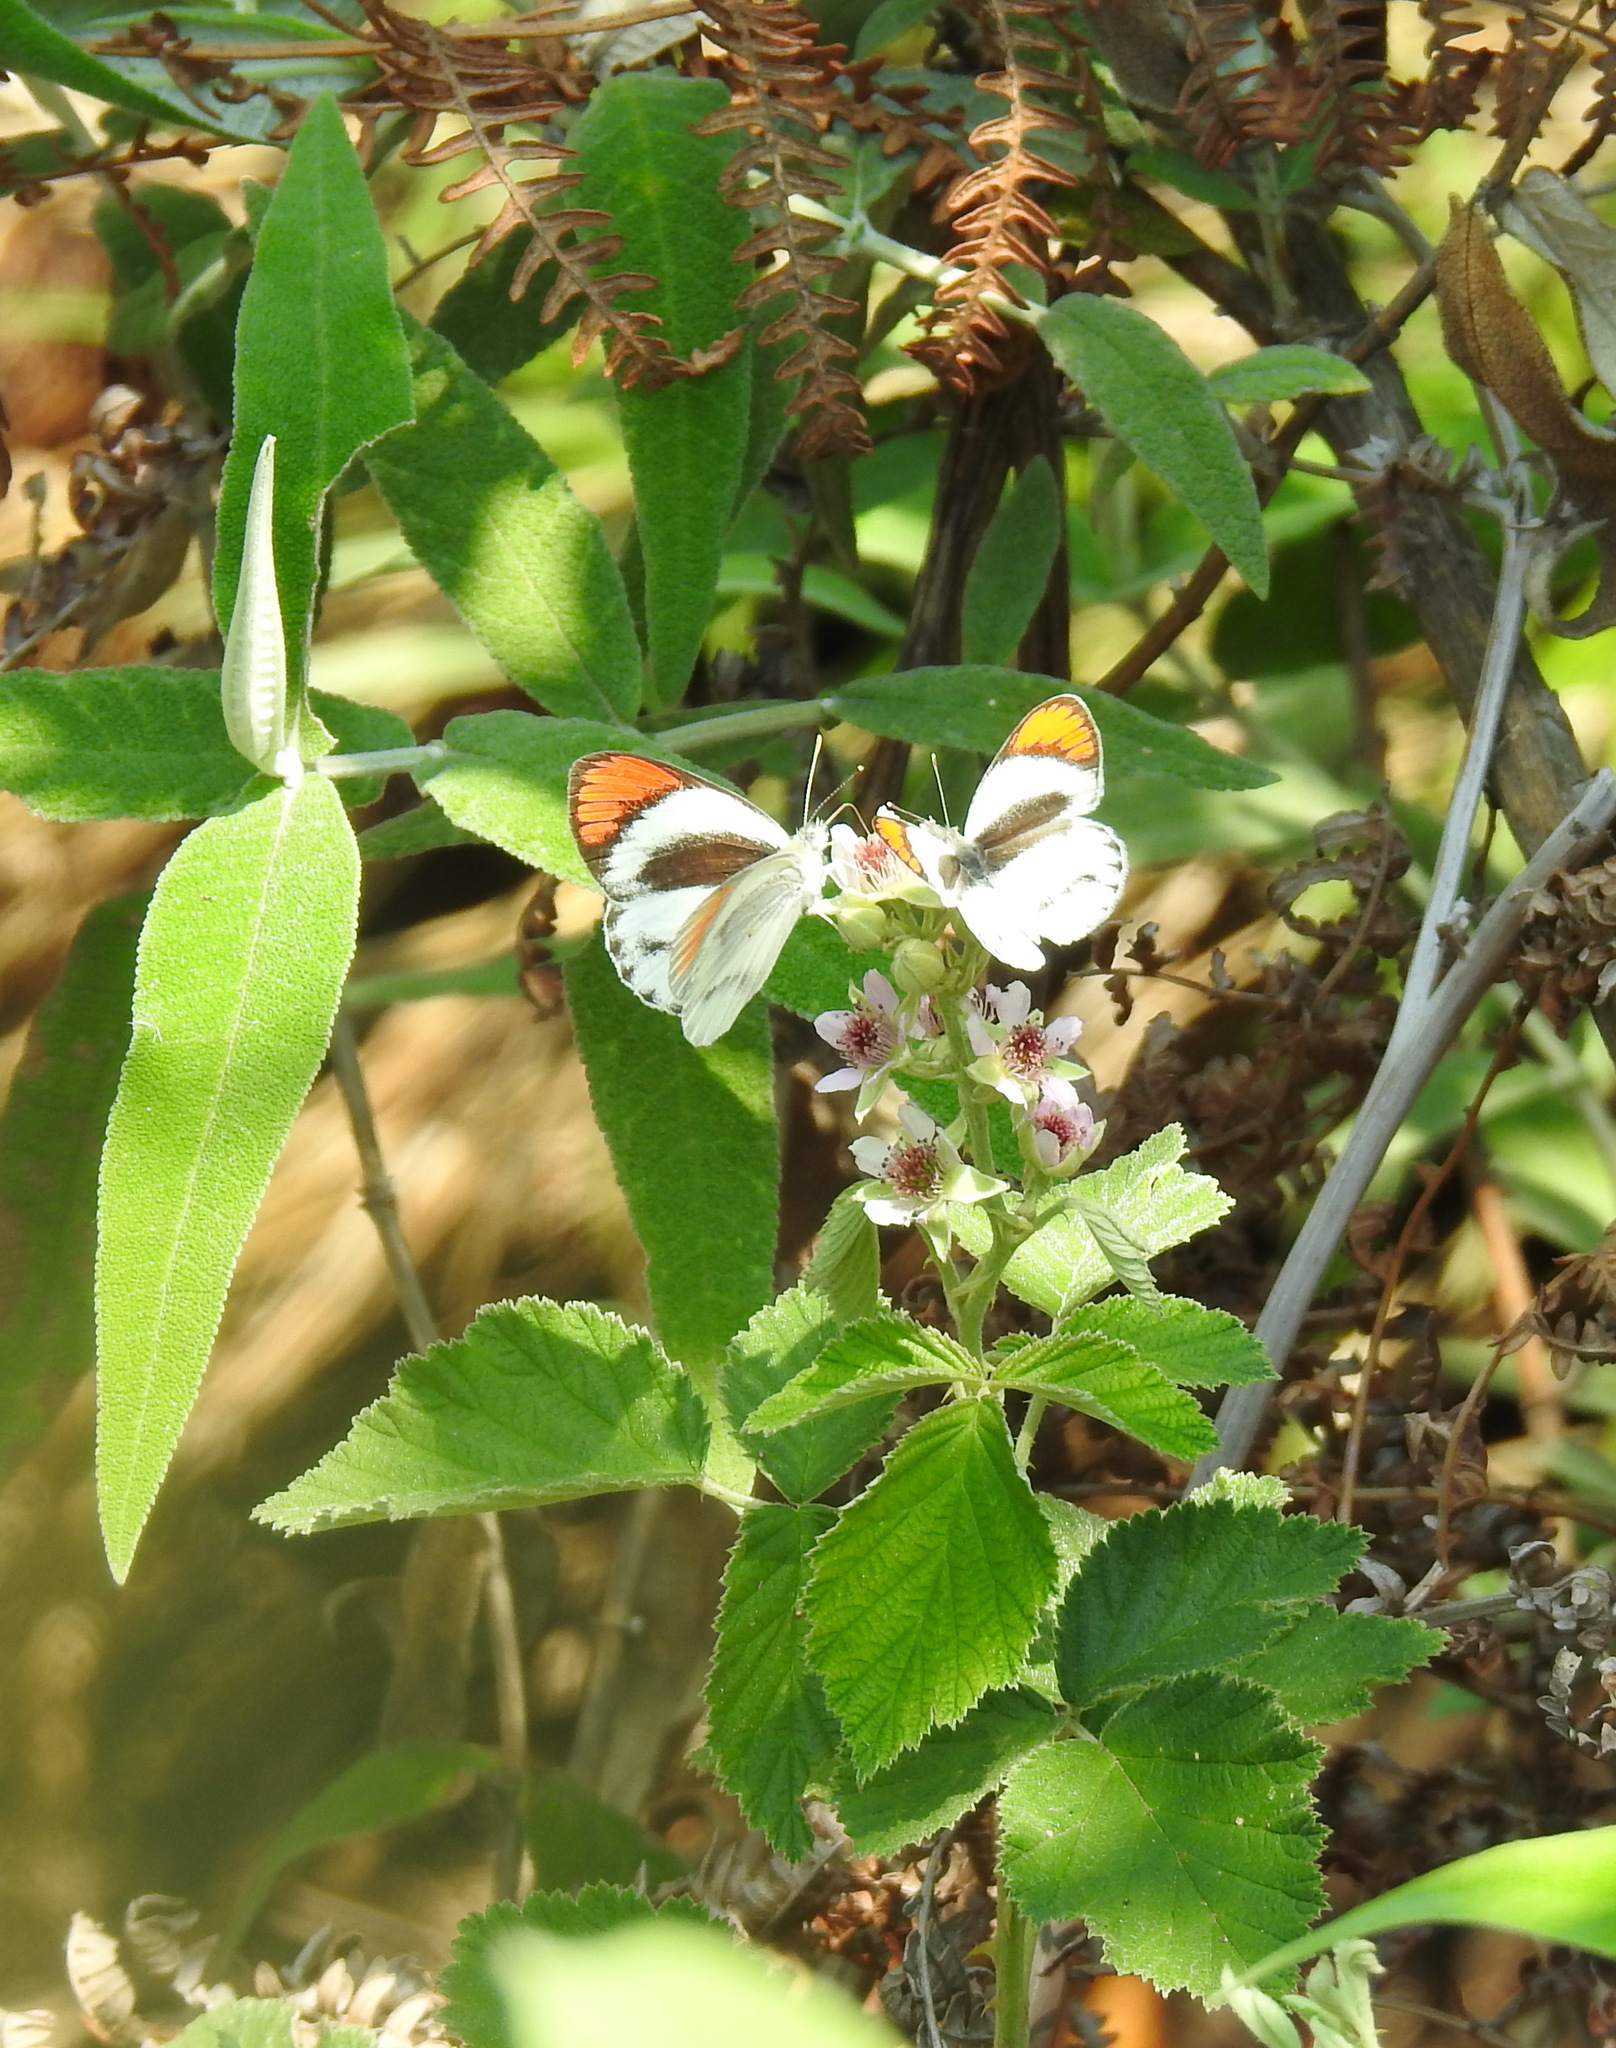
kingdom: Animalia
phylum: Arthropoda
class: Insecta
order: Lepidoptera
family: Pieridae
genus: Colotis
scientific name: Colotis euippe
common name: Round-winged orange tip
